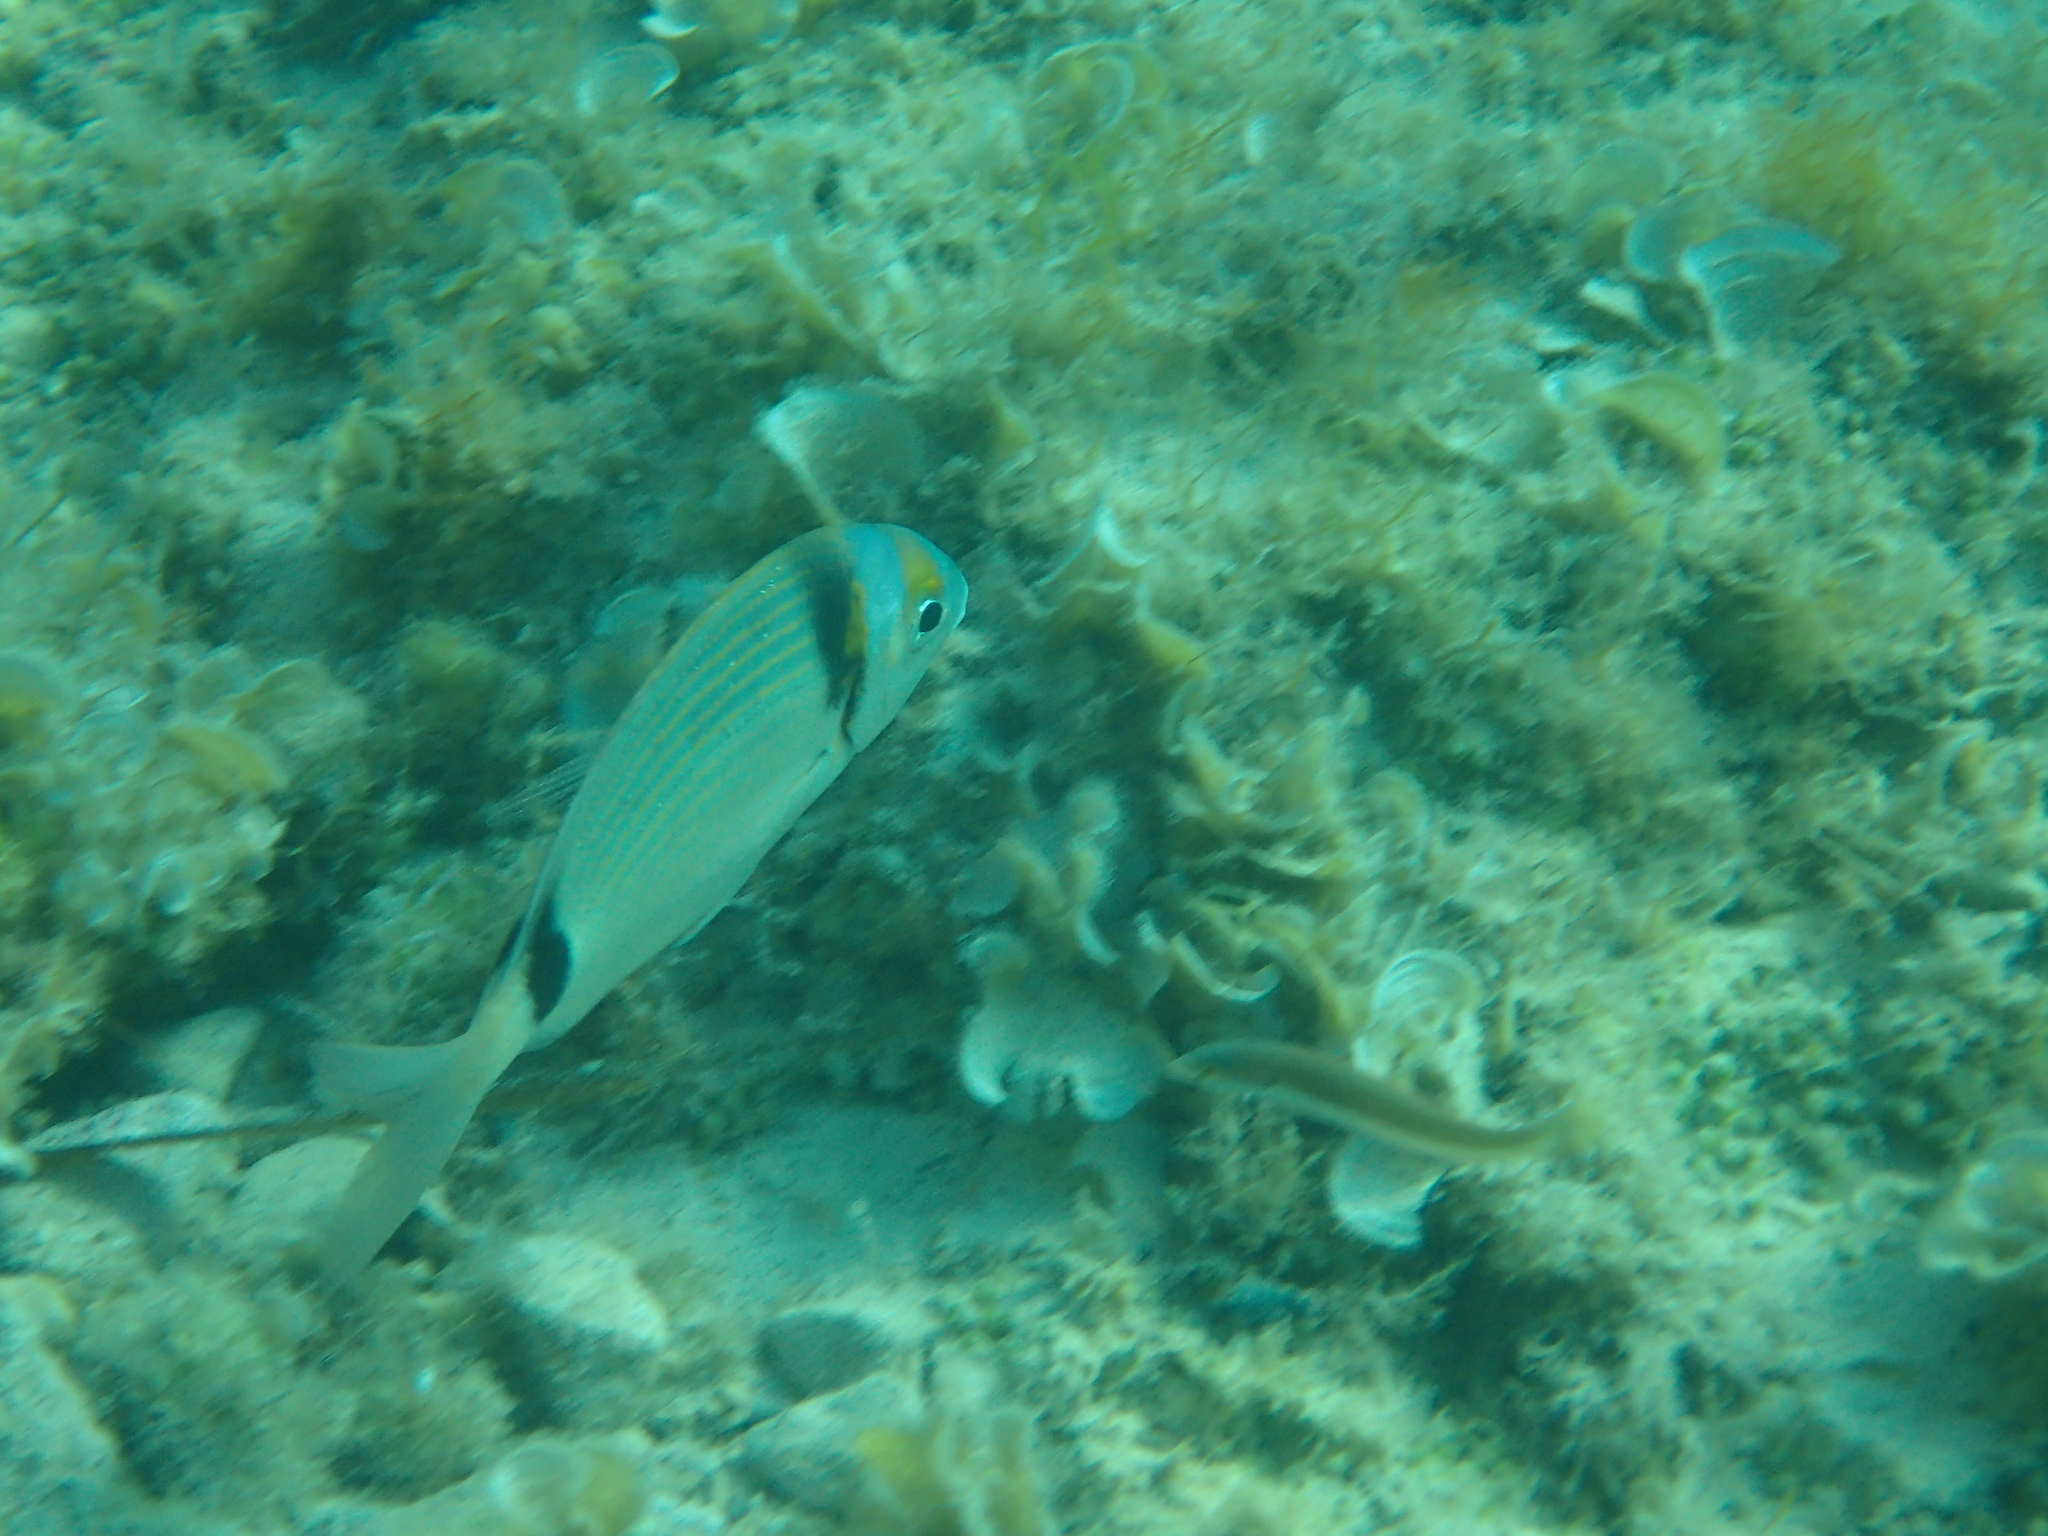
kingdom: Animalia
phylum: Chordata
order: Perciformes
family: Sparidae
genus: Diplodus
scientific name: Diplodus vulgaris
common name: Common two-banded seabream
